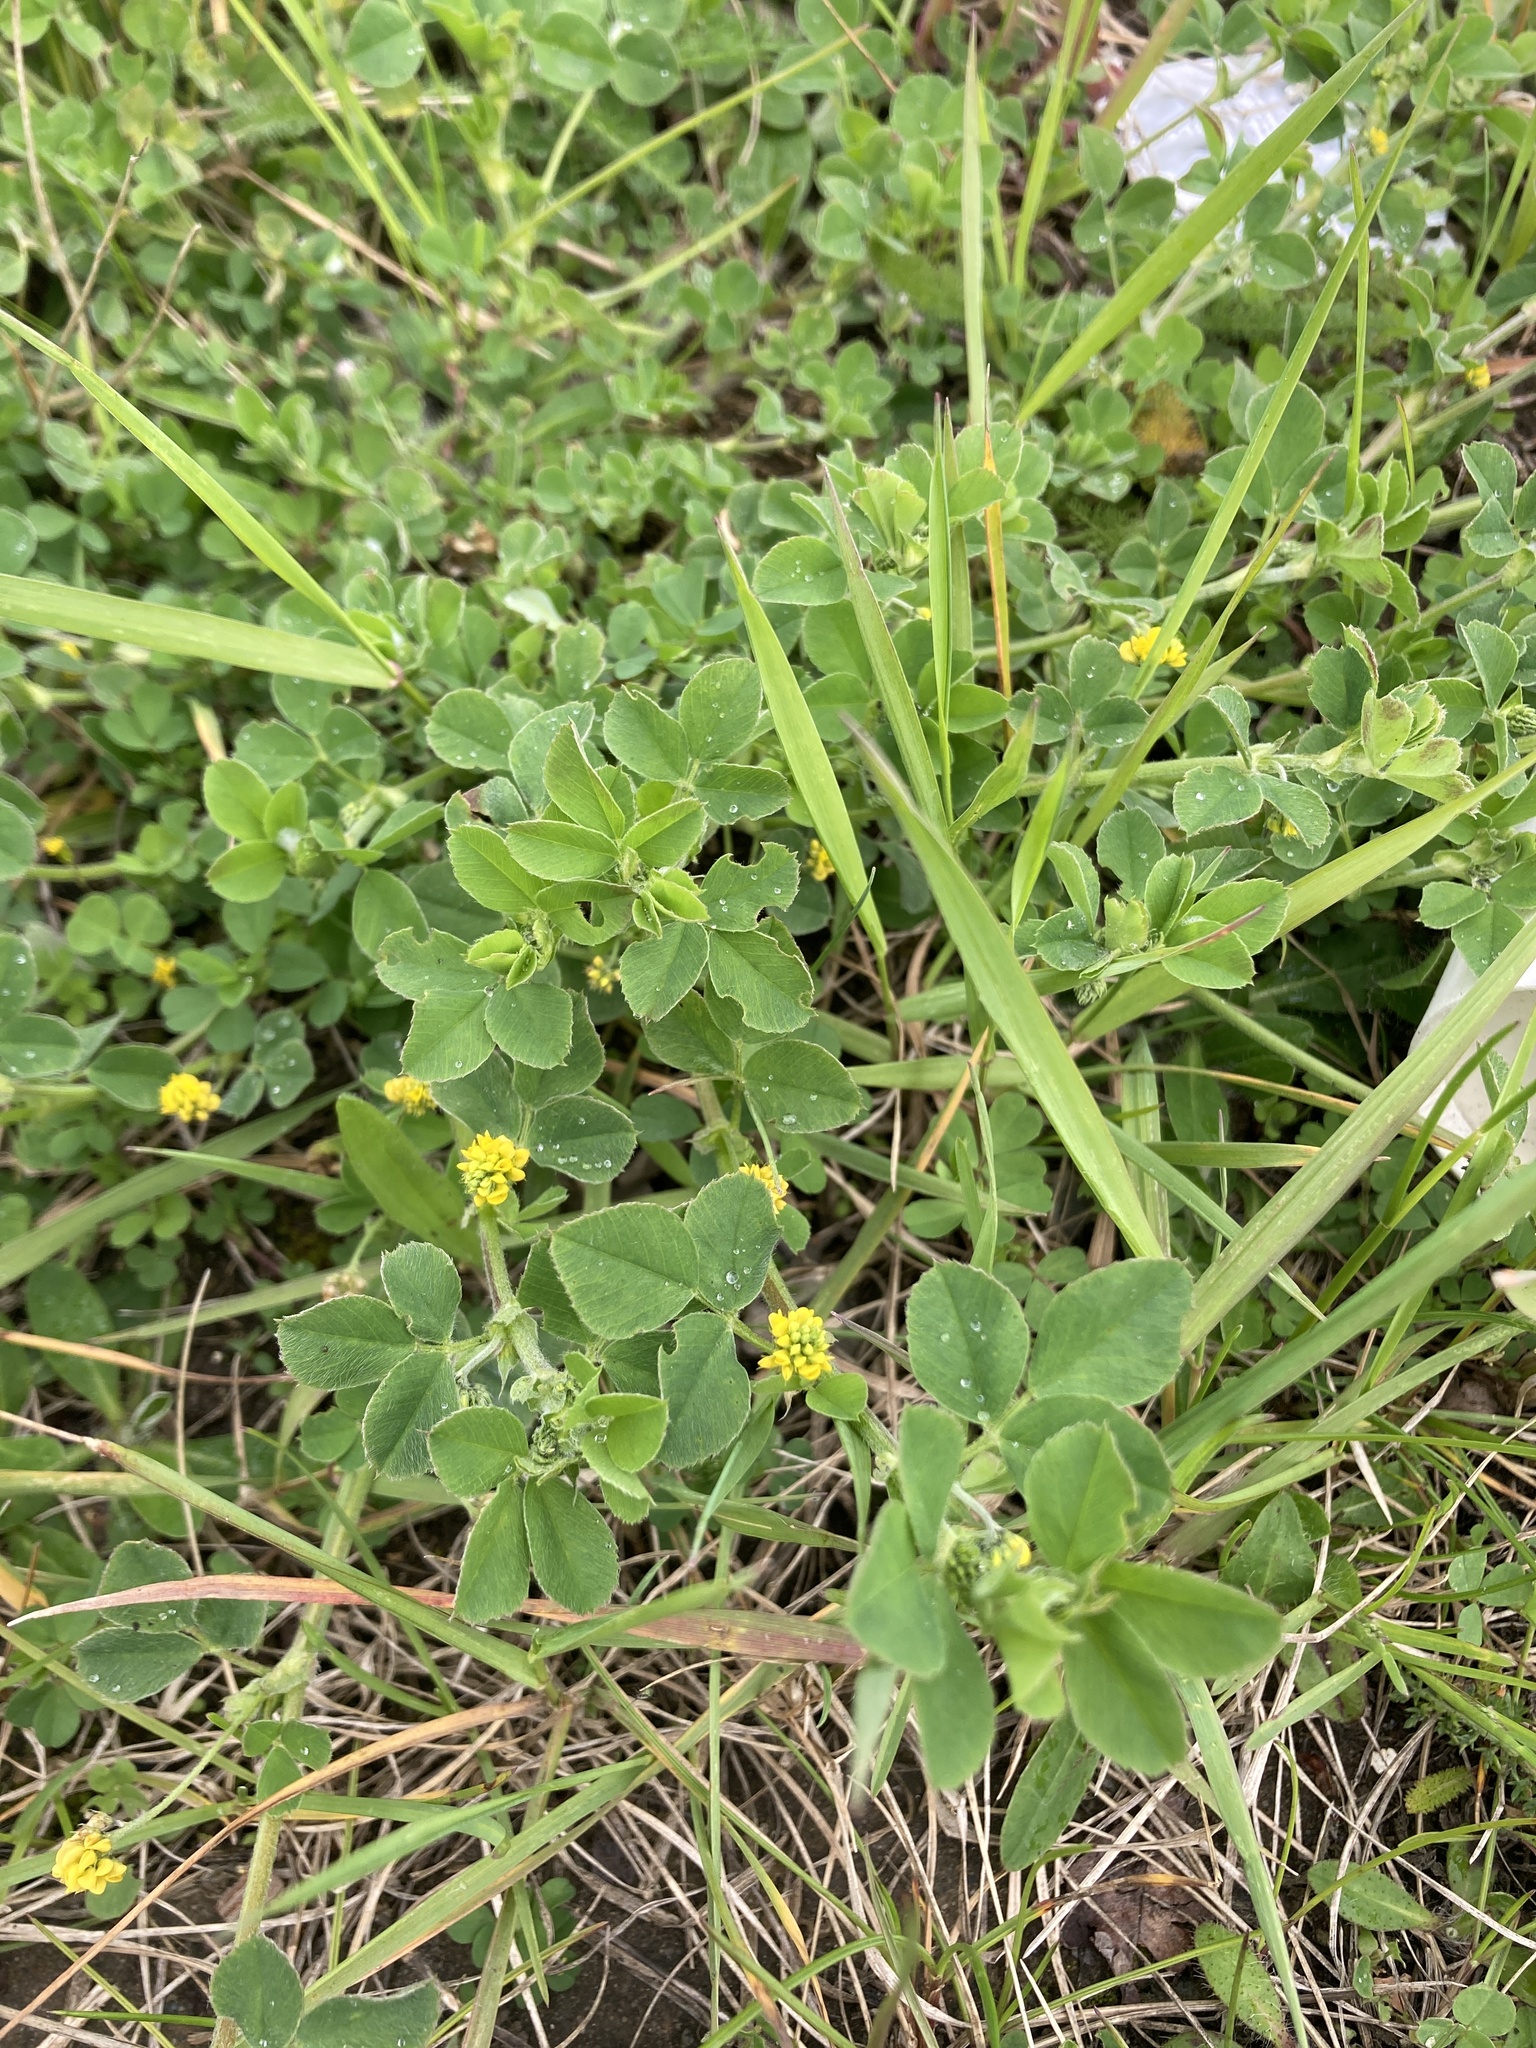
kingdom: Plantae
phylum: Tracheophyta
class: Magnoliopsida
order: Fabales
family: Fabaceae
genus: Medicago
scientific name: Medicago lupulina
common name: Black medick
